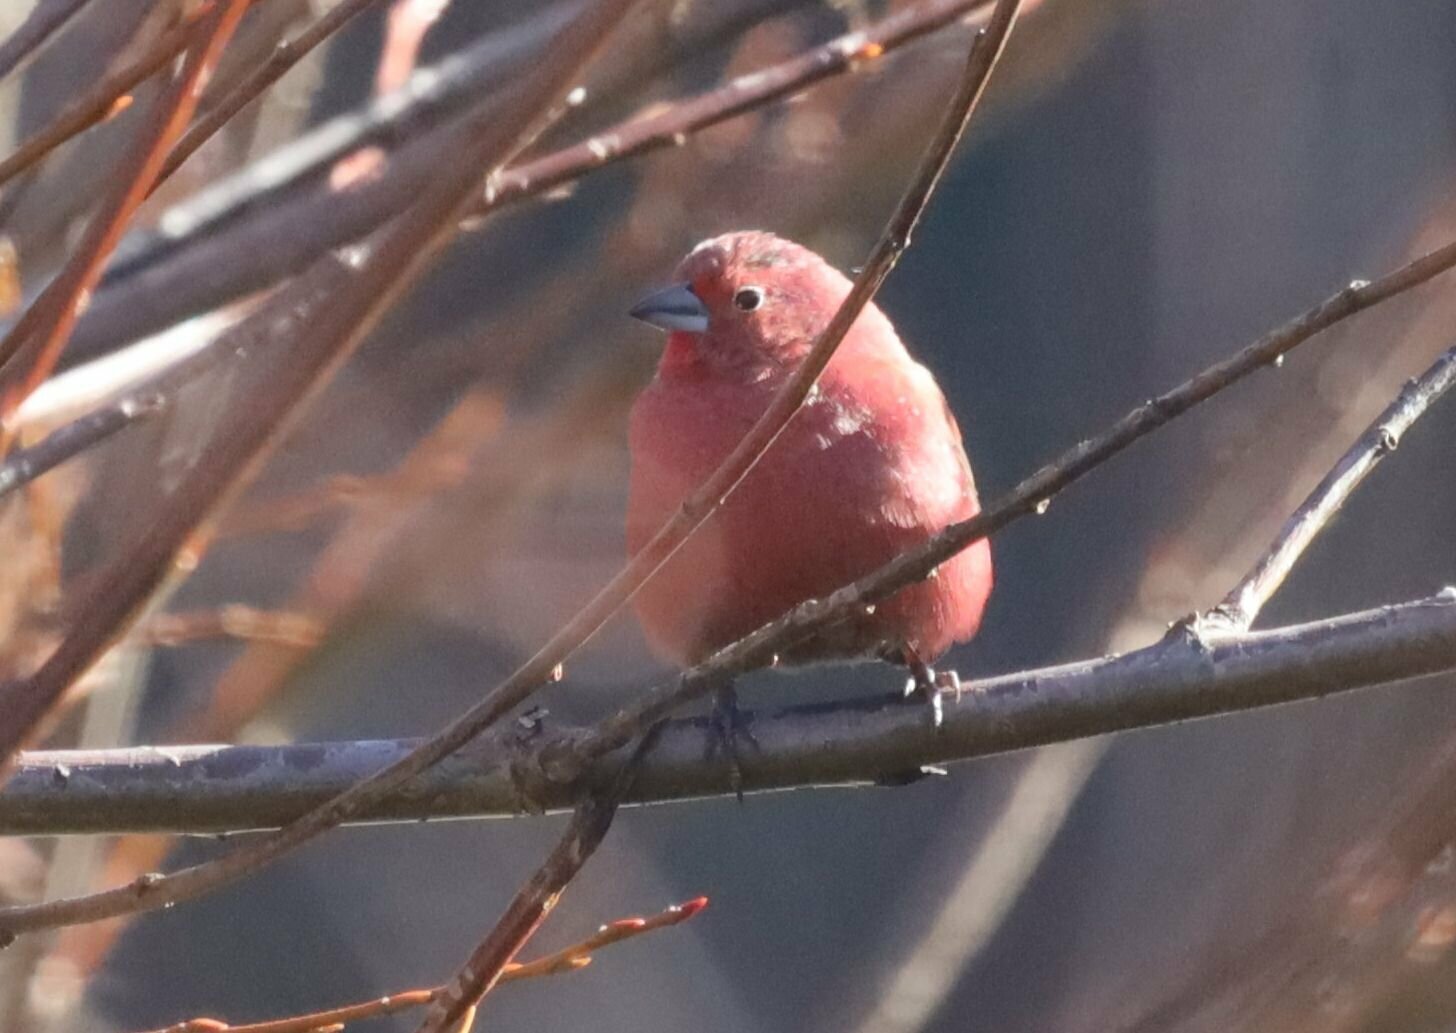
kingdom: Animalia
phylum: Chordata
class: Aves
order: Passeriformes
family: Estrildidae
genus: Lagonosticta
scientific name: Lagonosticta rhodopareia
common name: Jameson's firefinch
